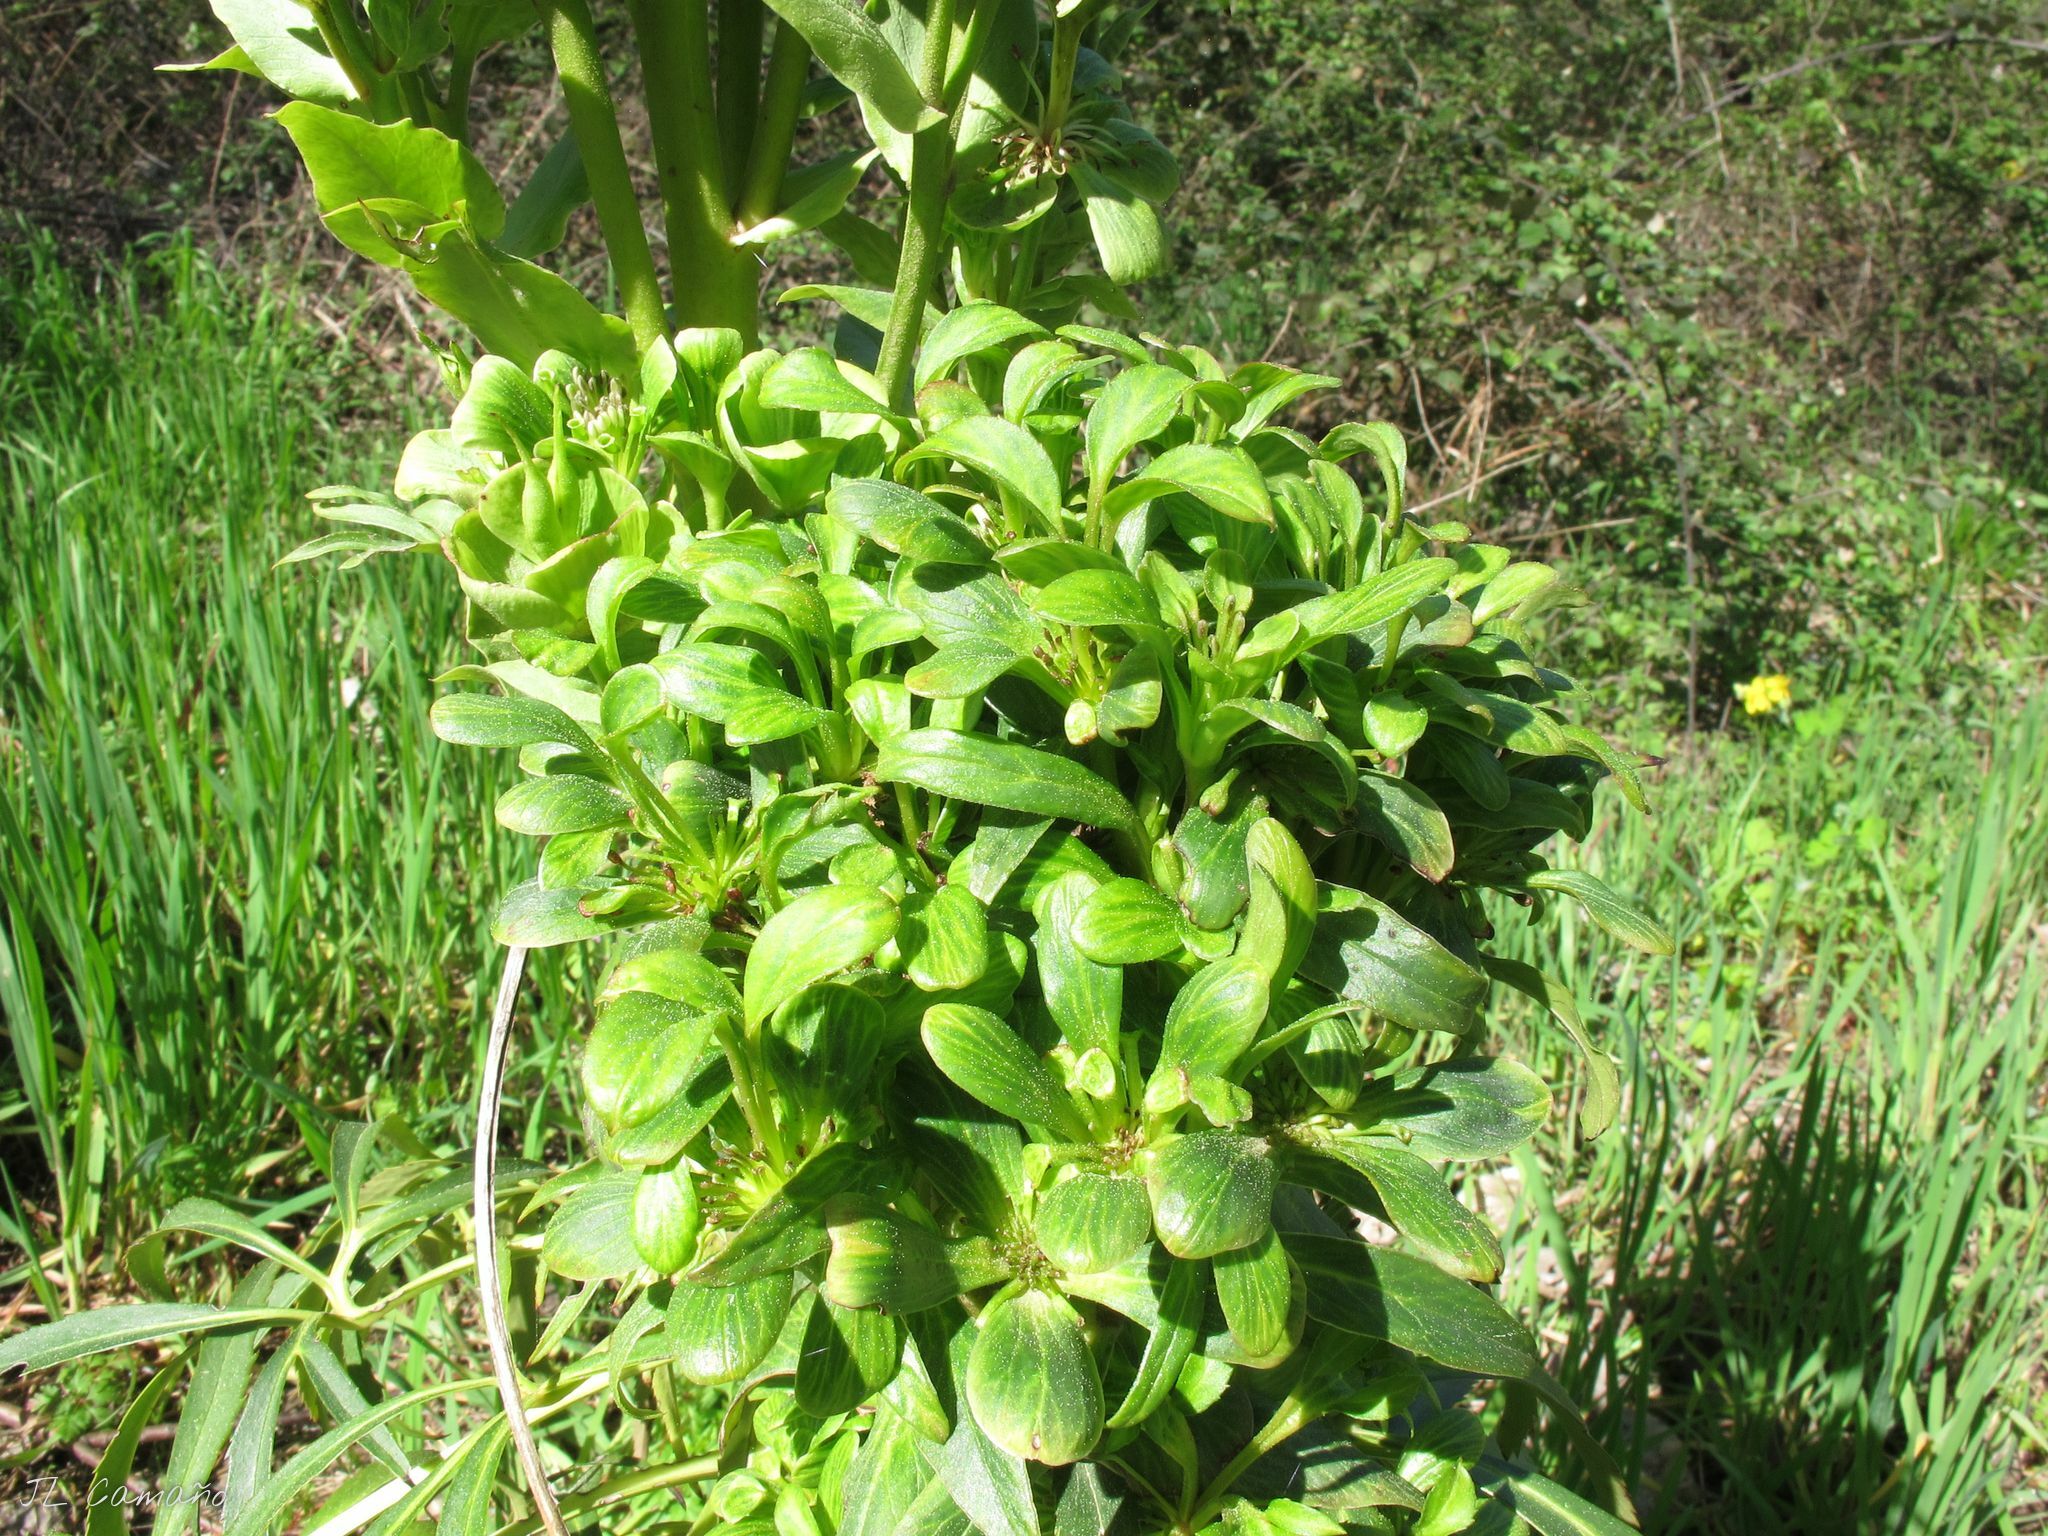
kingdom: Plantae
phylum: Tracheophyta
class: Magnoliopsida
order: Ranunculales
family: Ranunculaceae
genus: Helleborus
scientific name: Helleborus viridis
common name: Green hellebore
